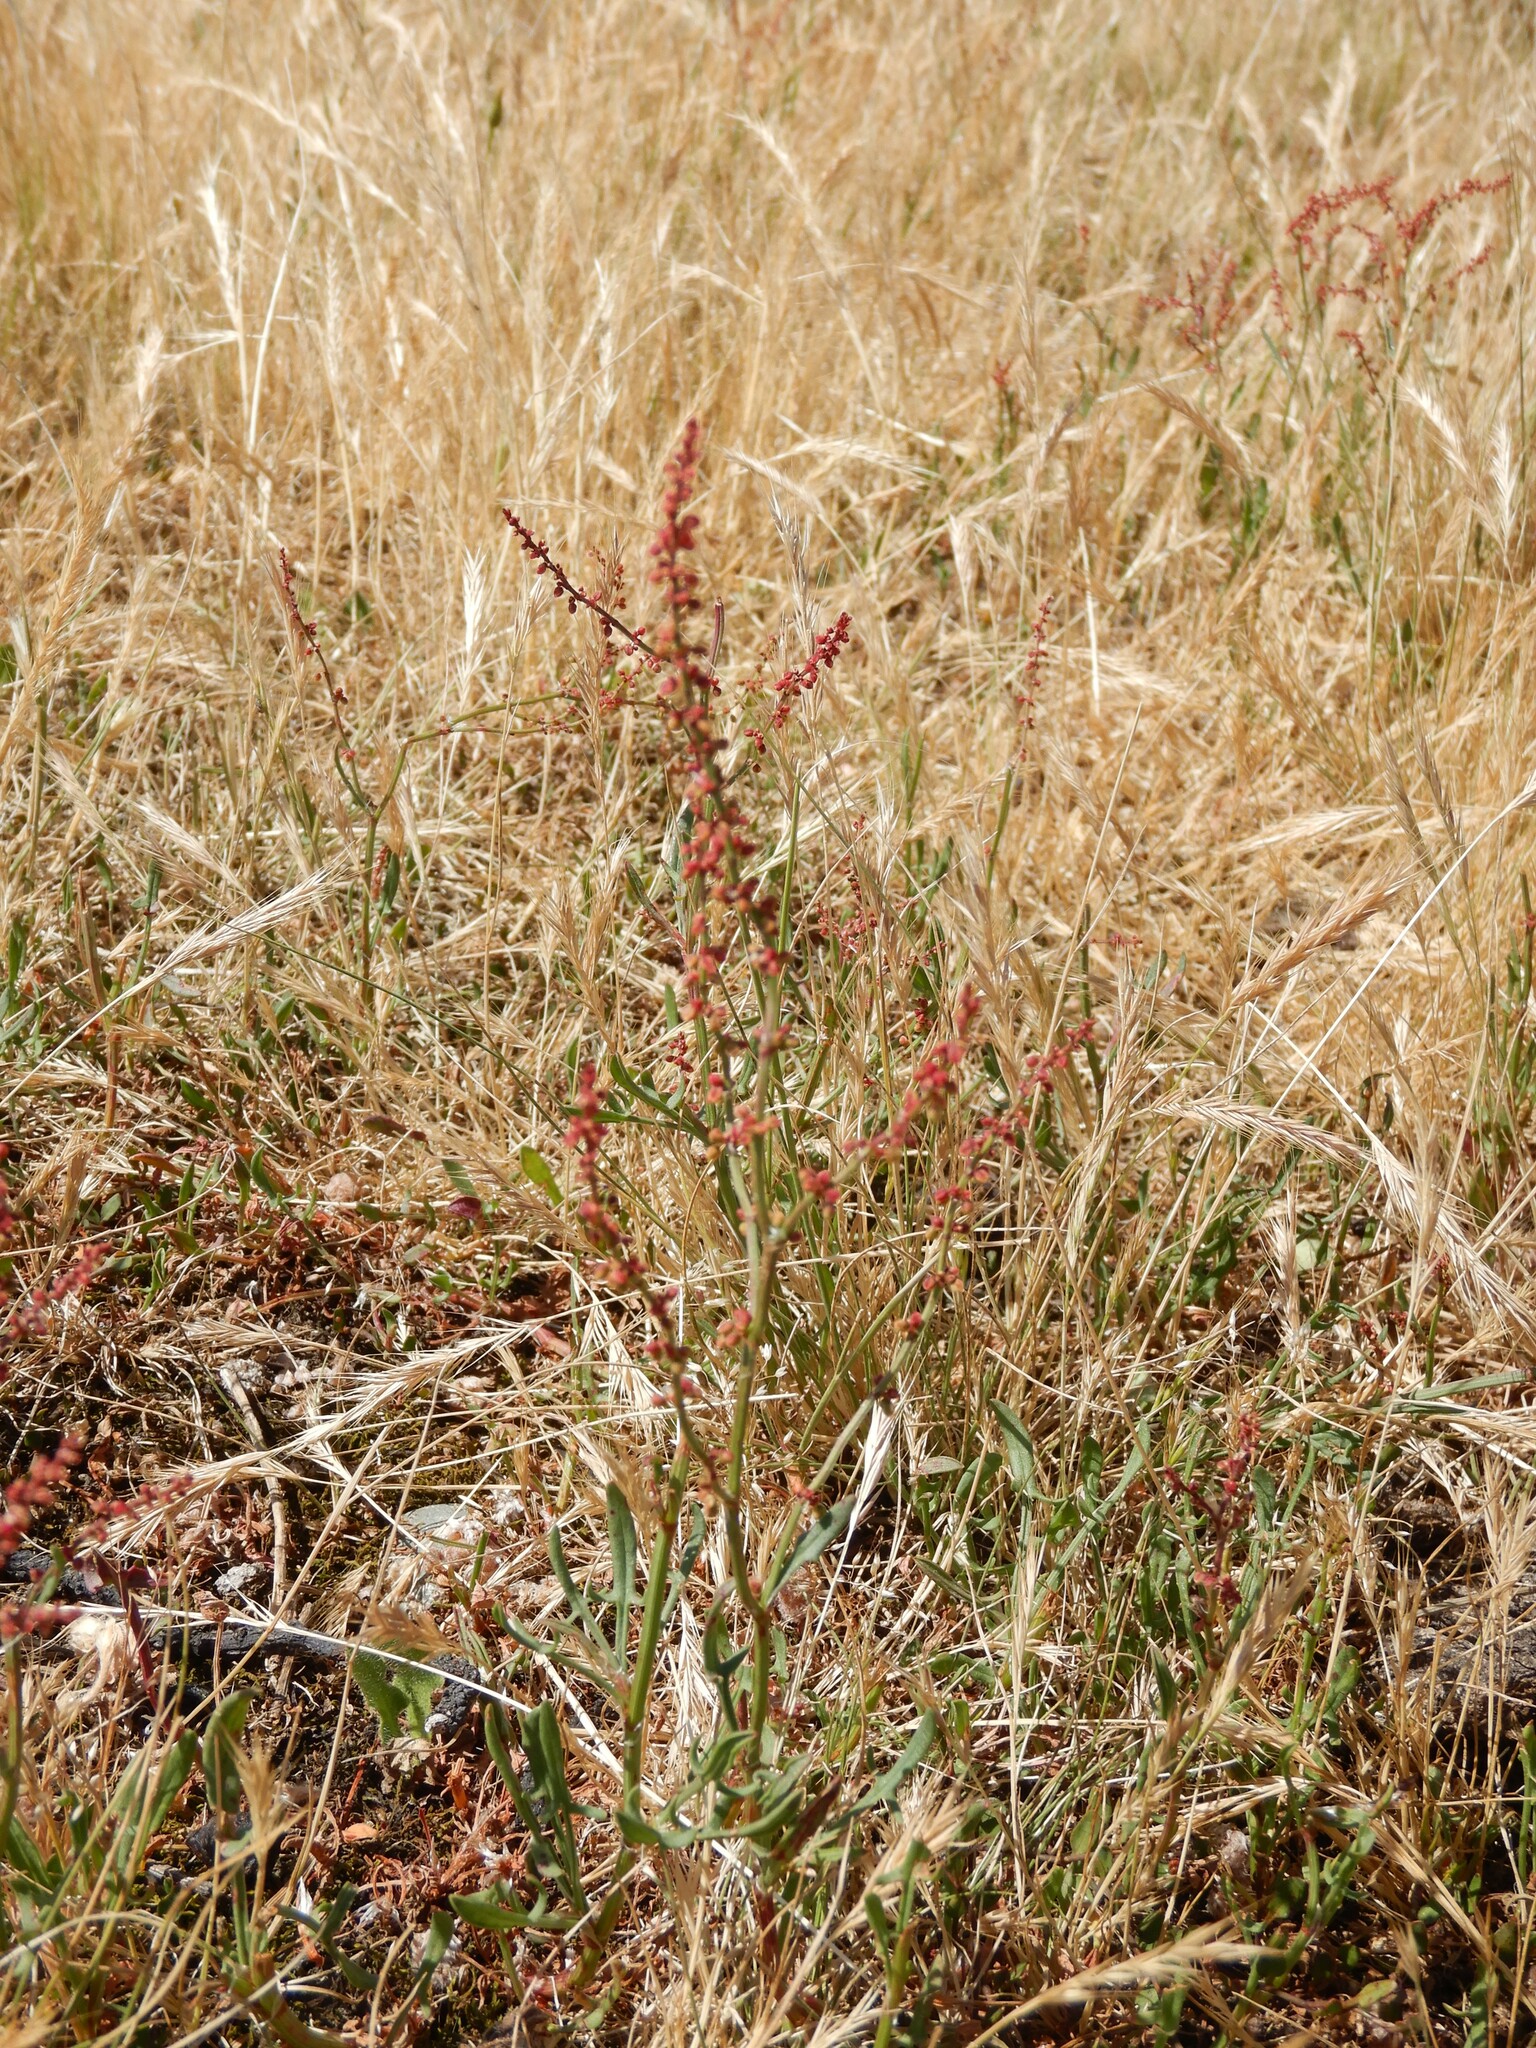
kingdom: Plantae
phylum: Tracheophyta
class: Magnoliopsida
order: Caryophyllales
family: Polygonaceae
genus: Rumex
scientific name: Rumex acetosella
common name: Common sheep sorrel
